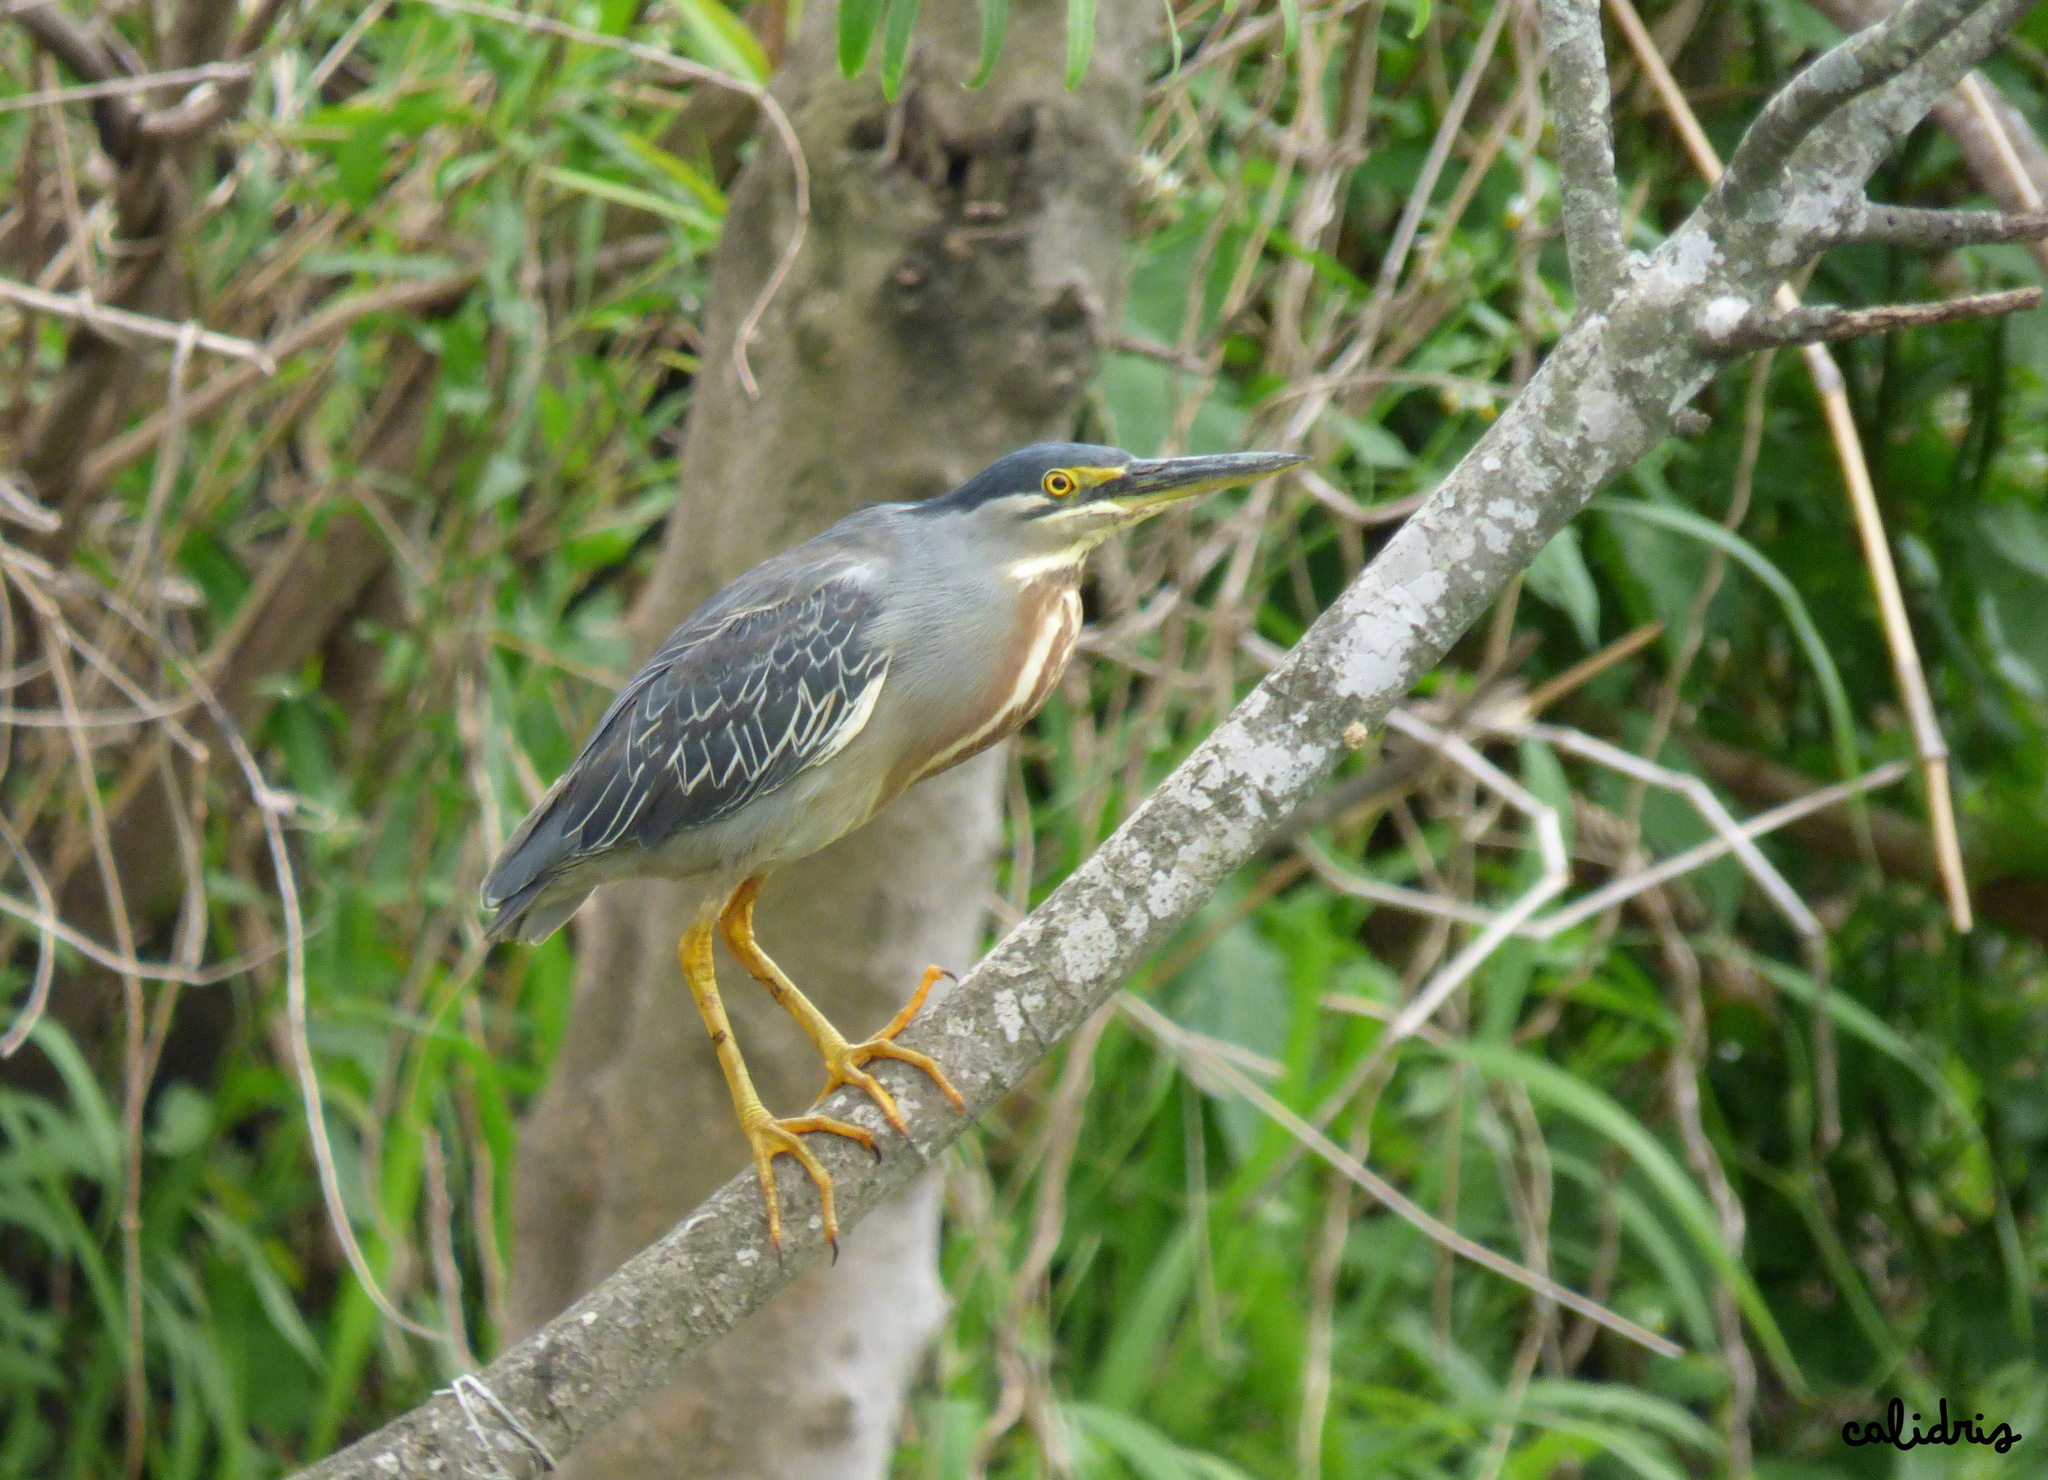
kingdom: Animalia
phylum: Chordata
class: Aves
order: Pelecaniformes
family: Ardeidae
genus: Butorides
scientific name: Butorides striata
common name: Striated heron
